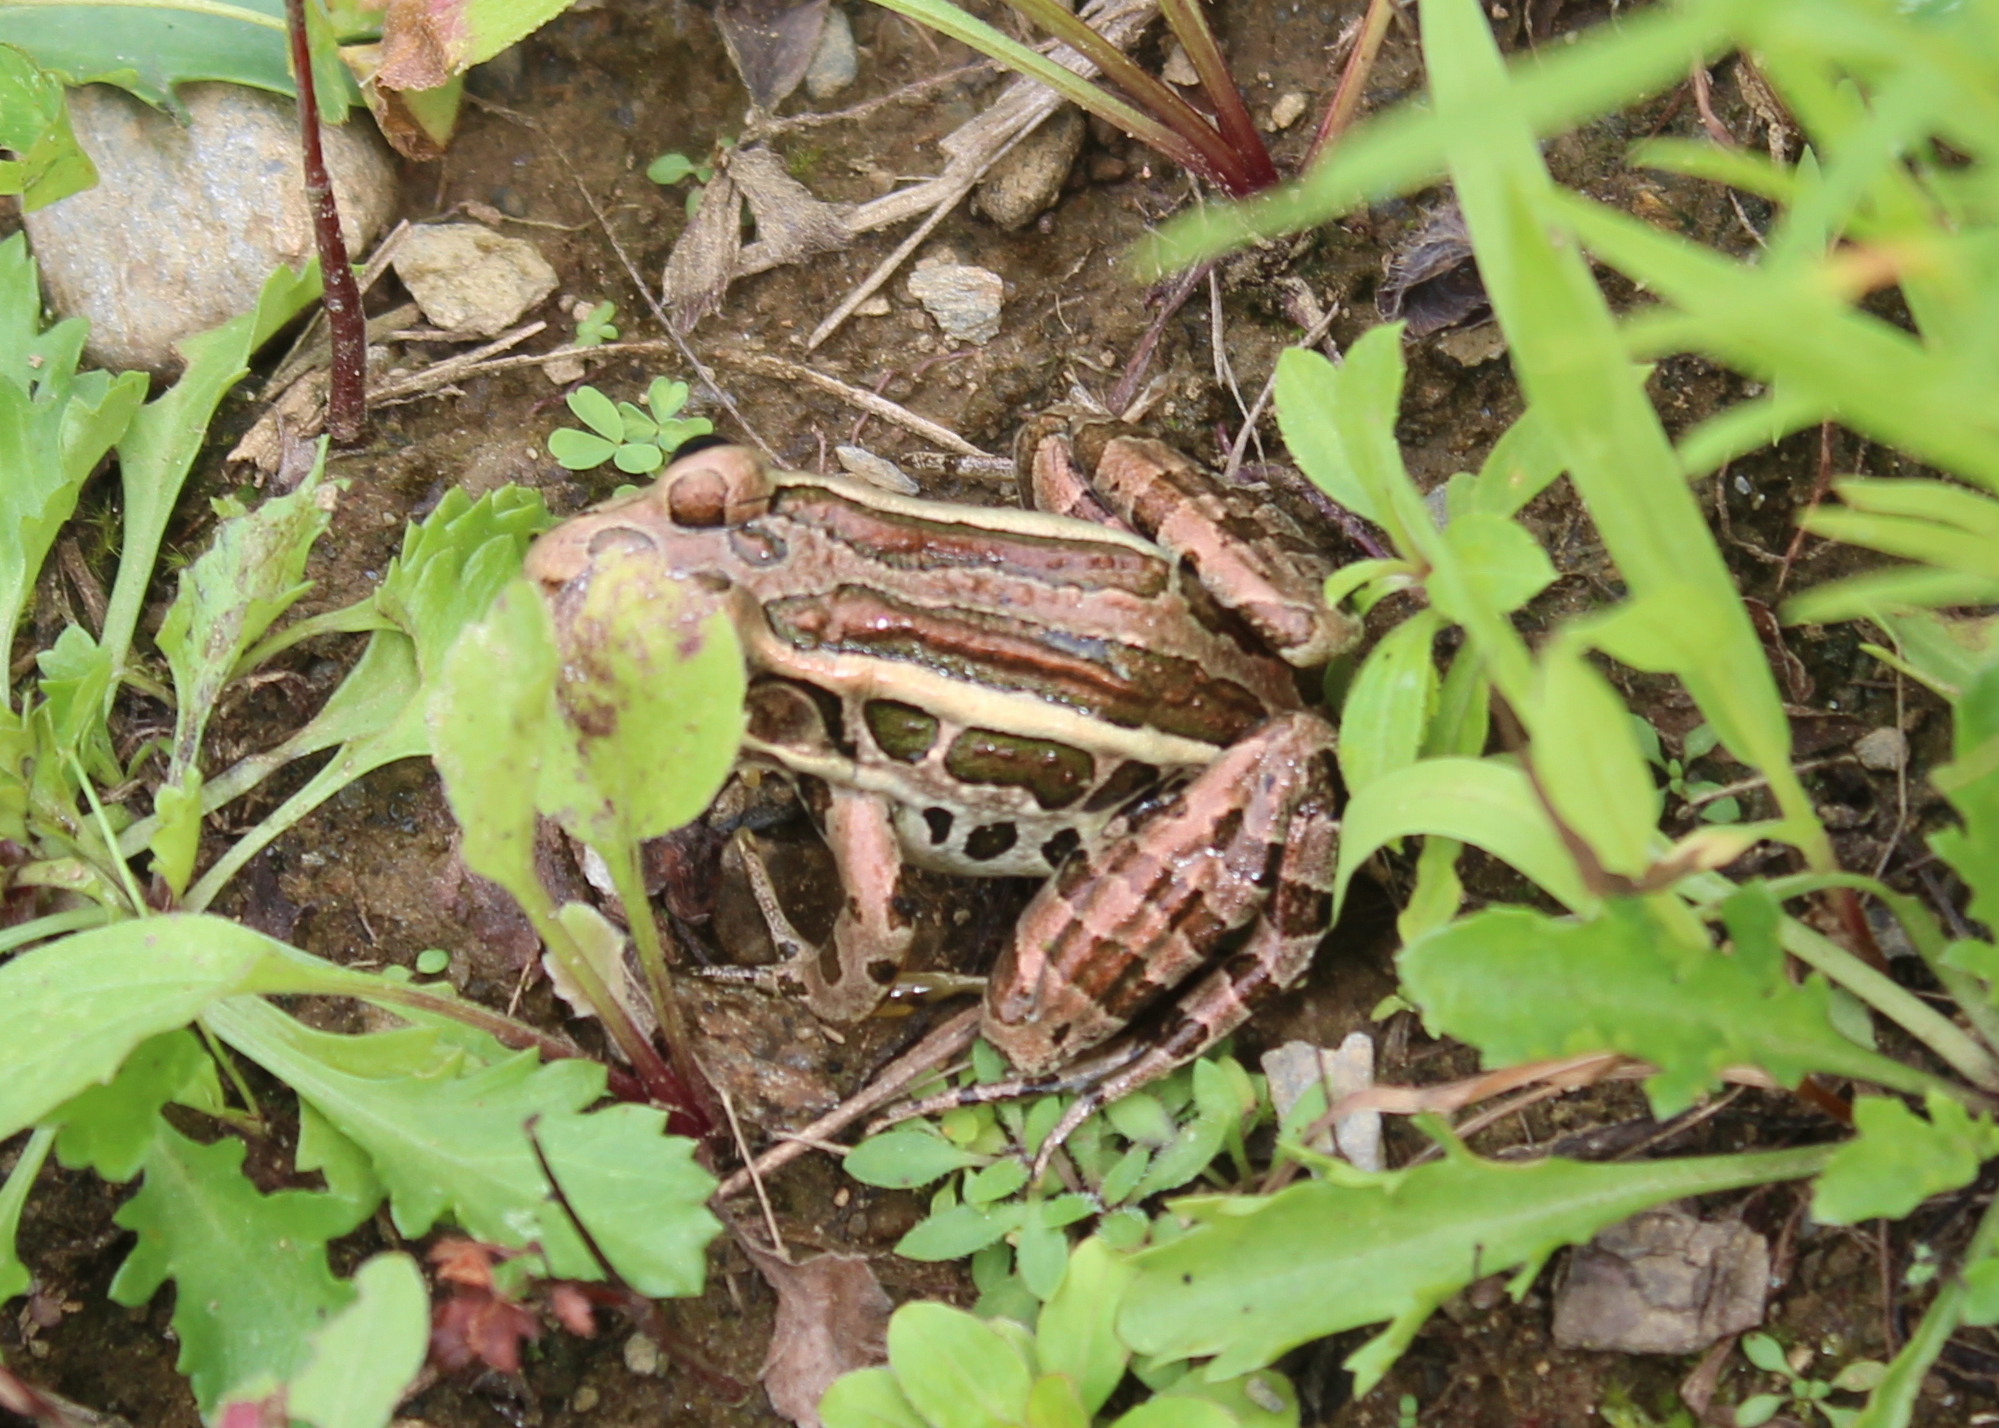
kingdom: Animalia
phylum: Chordata
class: Amphibia
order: Anura
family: Ranidae
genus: Lithobates
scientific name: Lithobates palustris
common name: Pickerel frog
